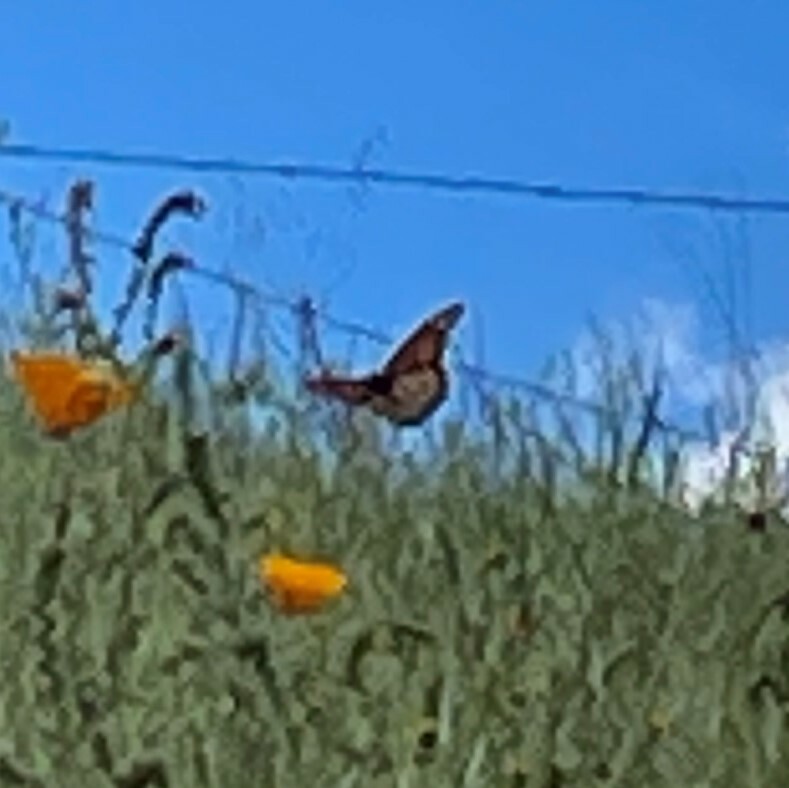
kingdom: Animalia
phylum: Arthropoda
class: Insecta
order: Lepidoptera
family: Nymphalidae
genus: Danaus
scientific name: Danaus plexippus
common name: Monarch
